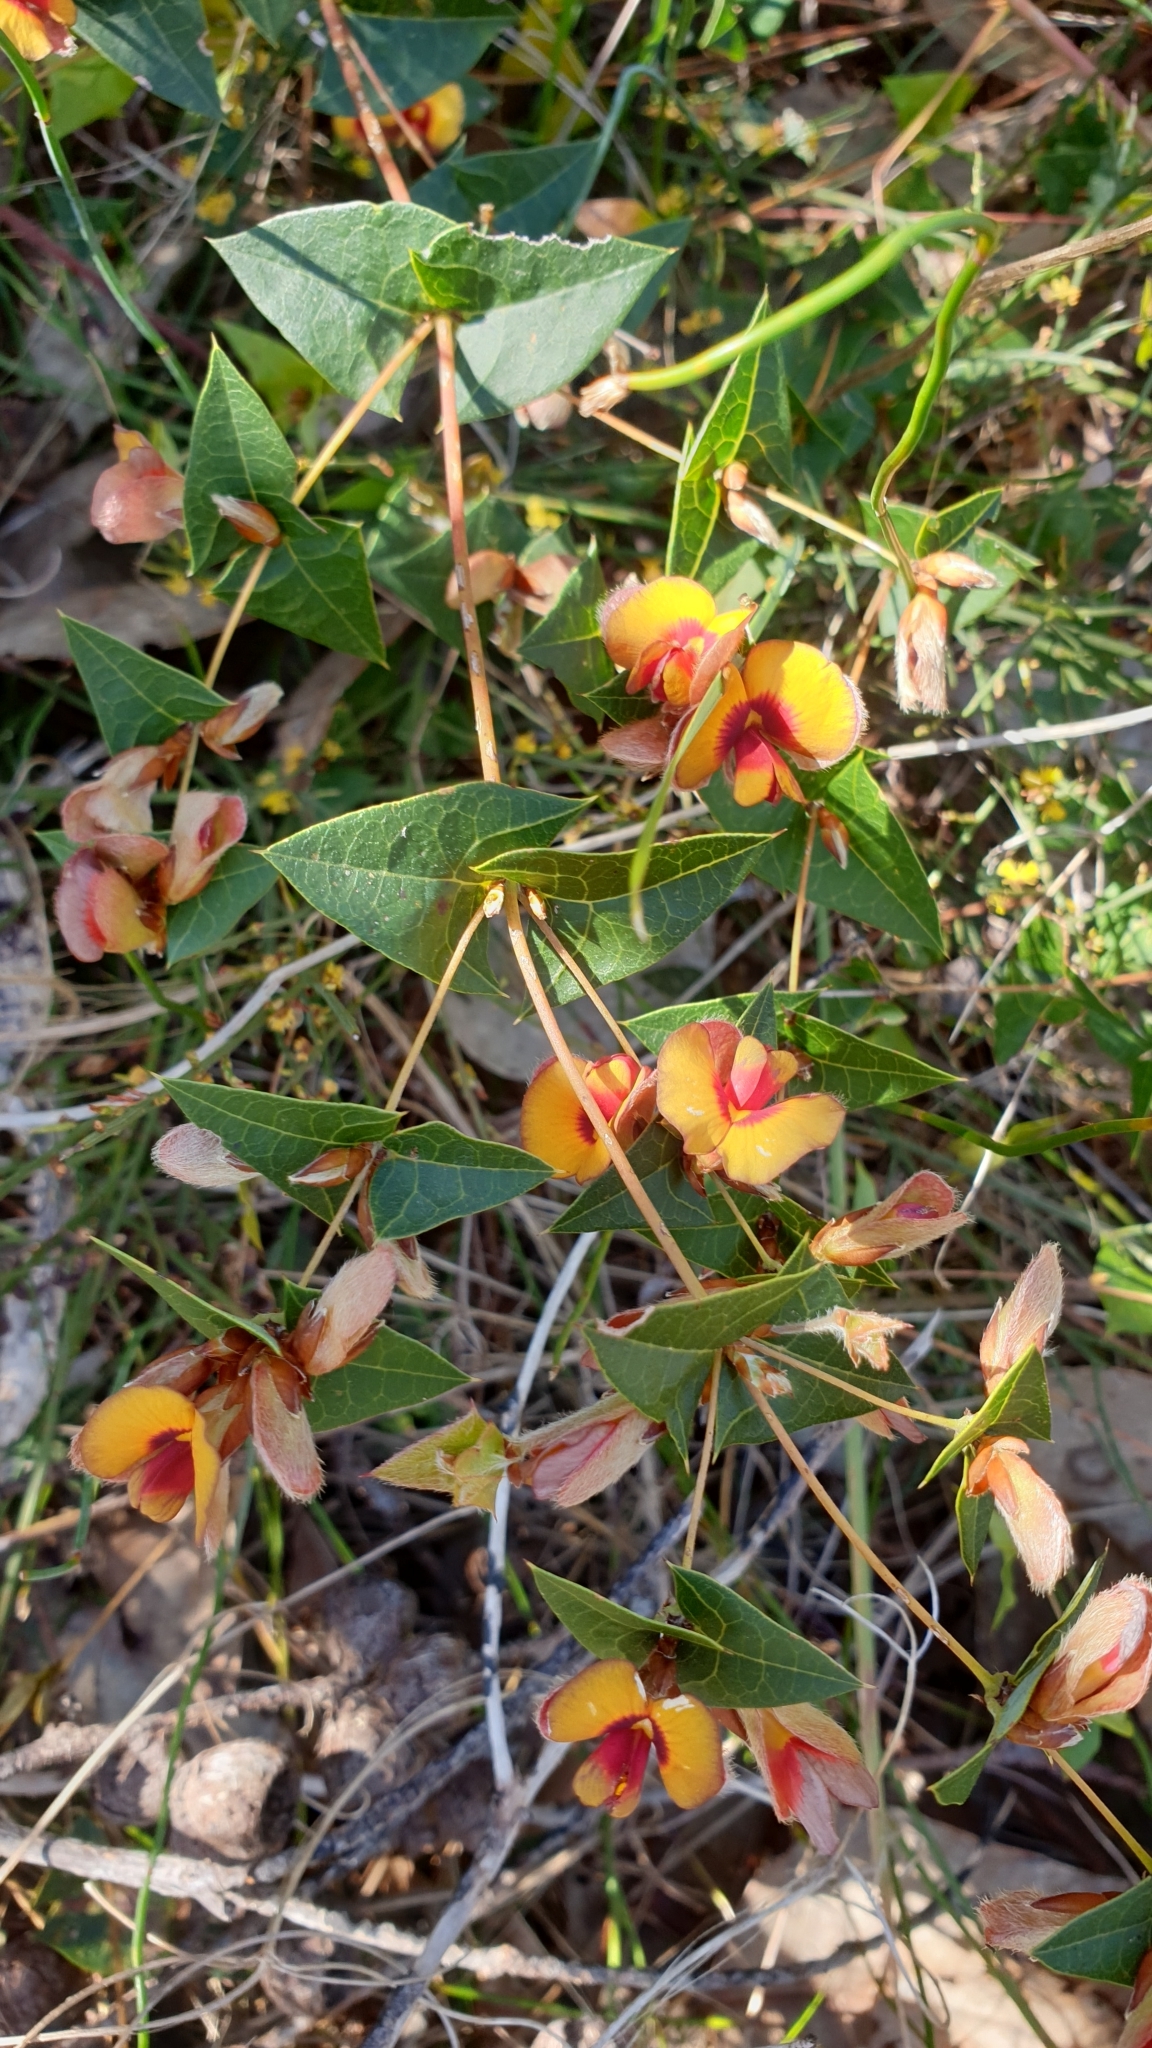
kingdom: Plantae
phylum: Tracheophyta
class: Magnoliopsida
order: Fabales
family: Fabaceae
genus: Platylobium
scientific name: Platylobium obtusangulum
